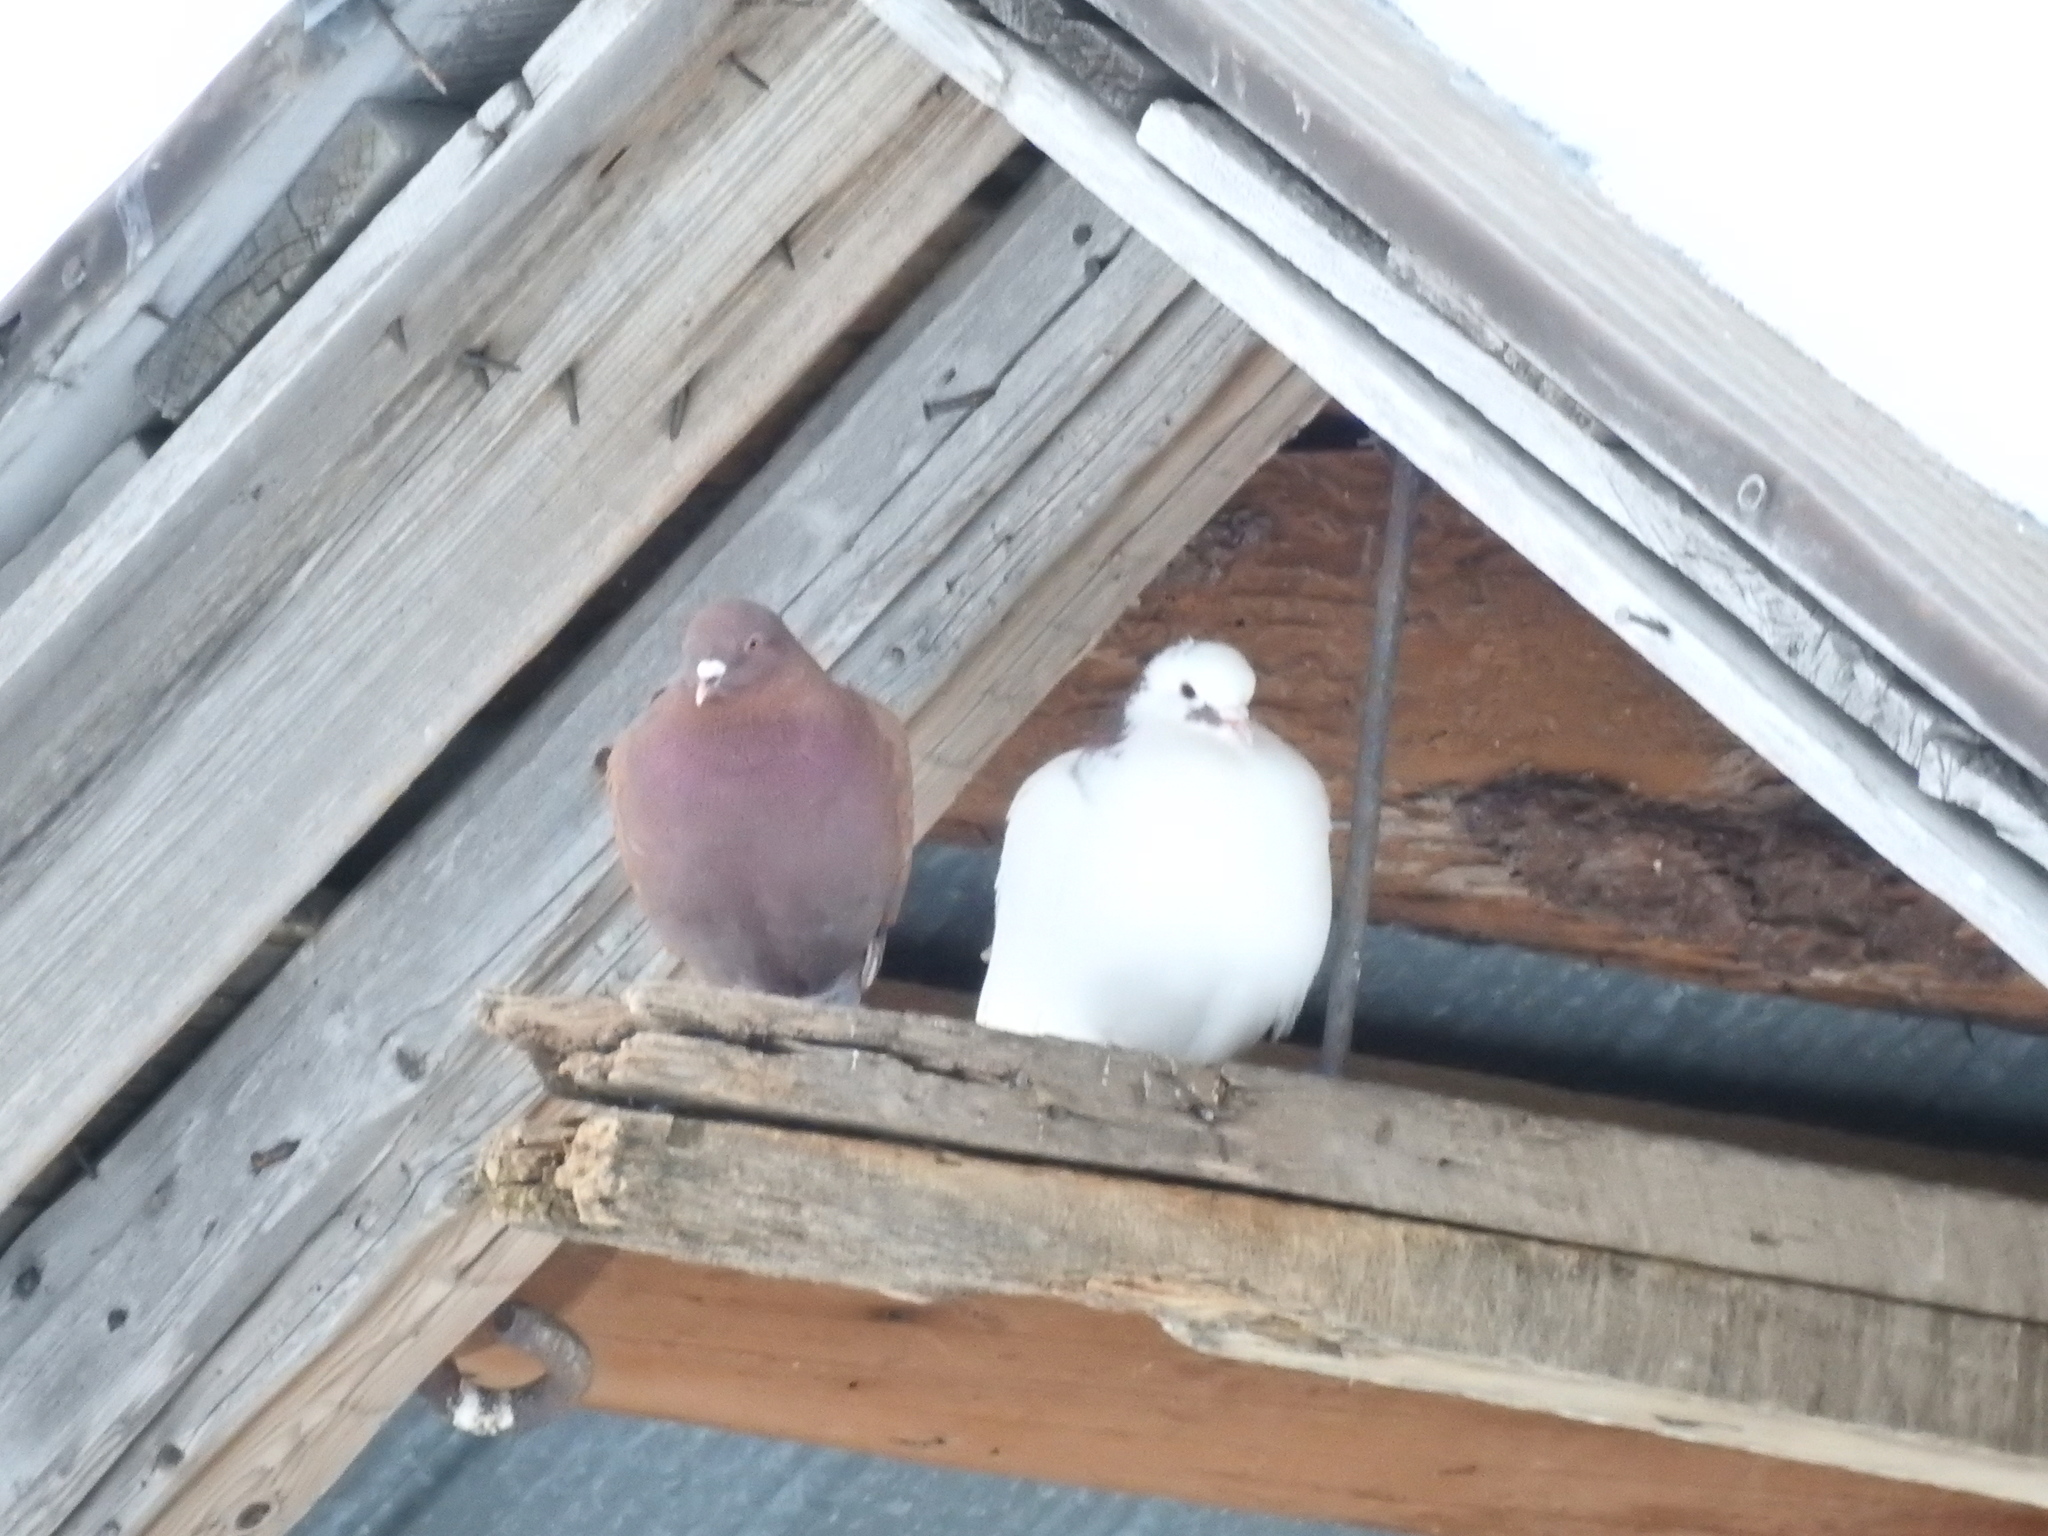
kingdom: Animalia
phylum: Chordata
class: Aves
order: Columbiformes
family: Columbidae
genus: Columba
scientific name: Columba livia
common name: Rock pigeon
